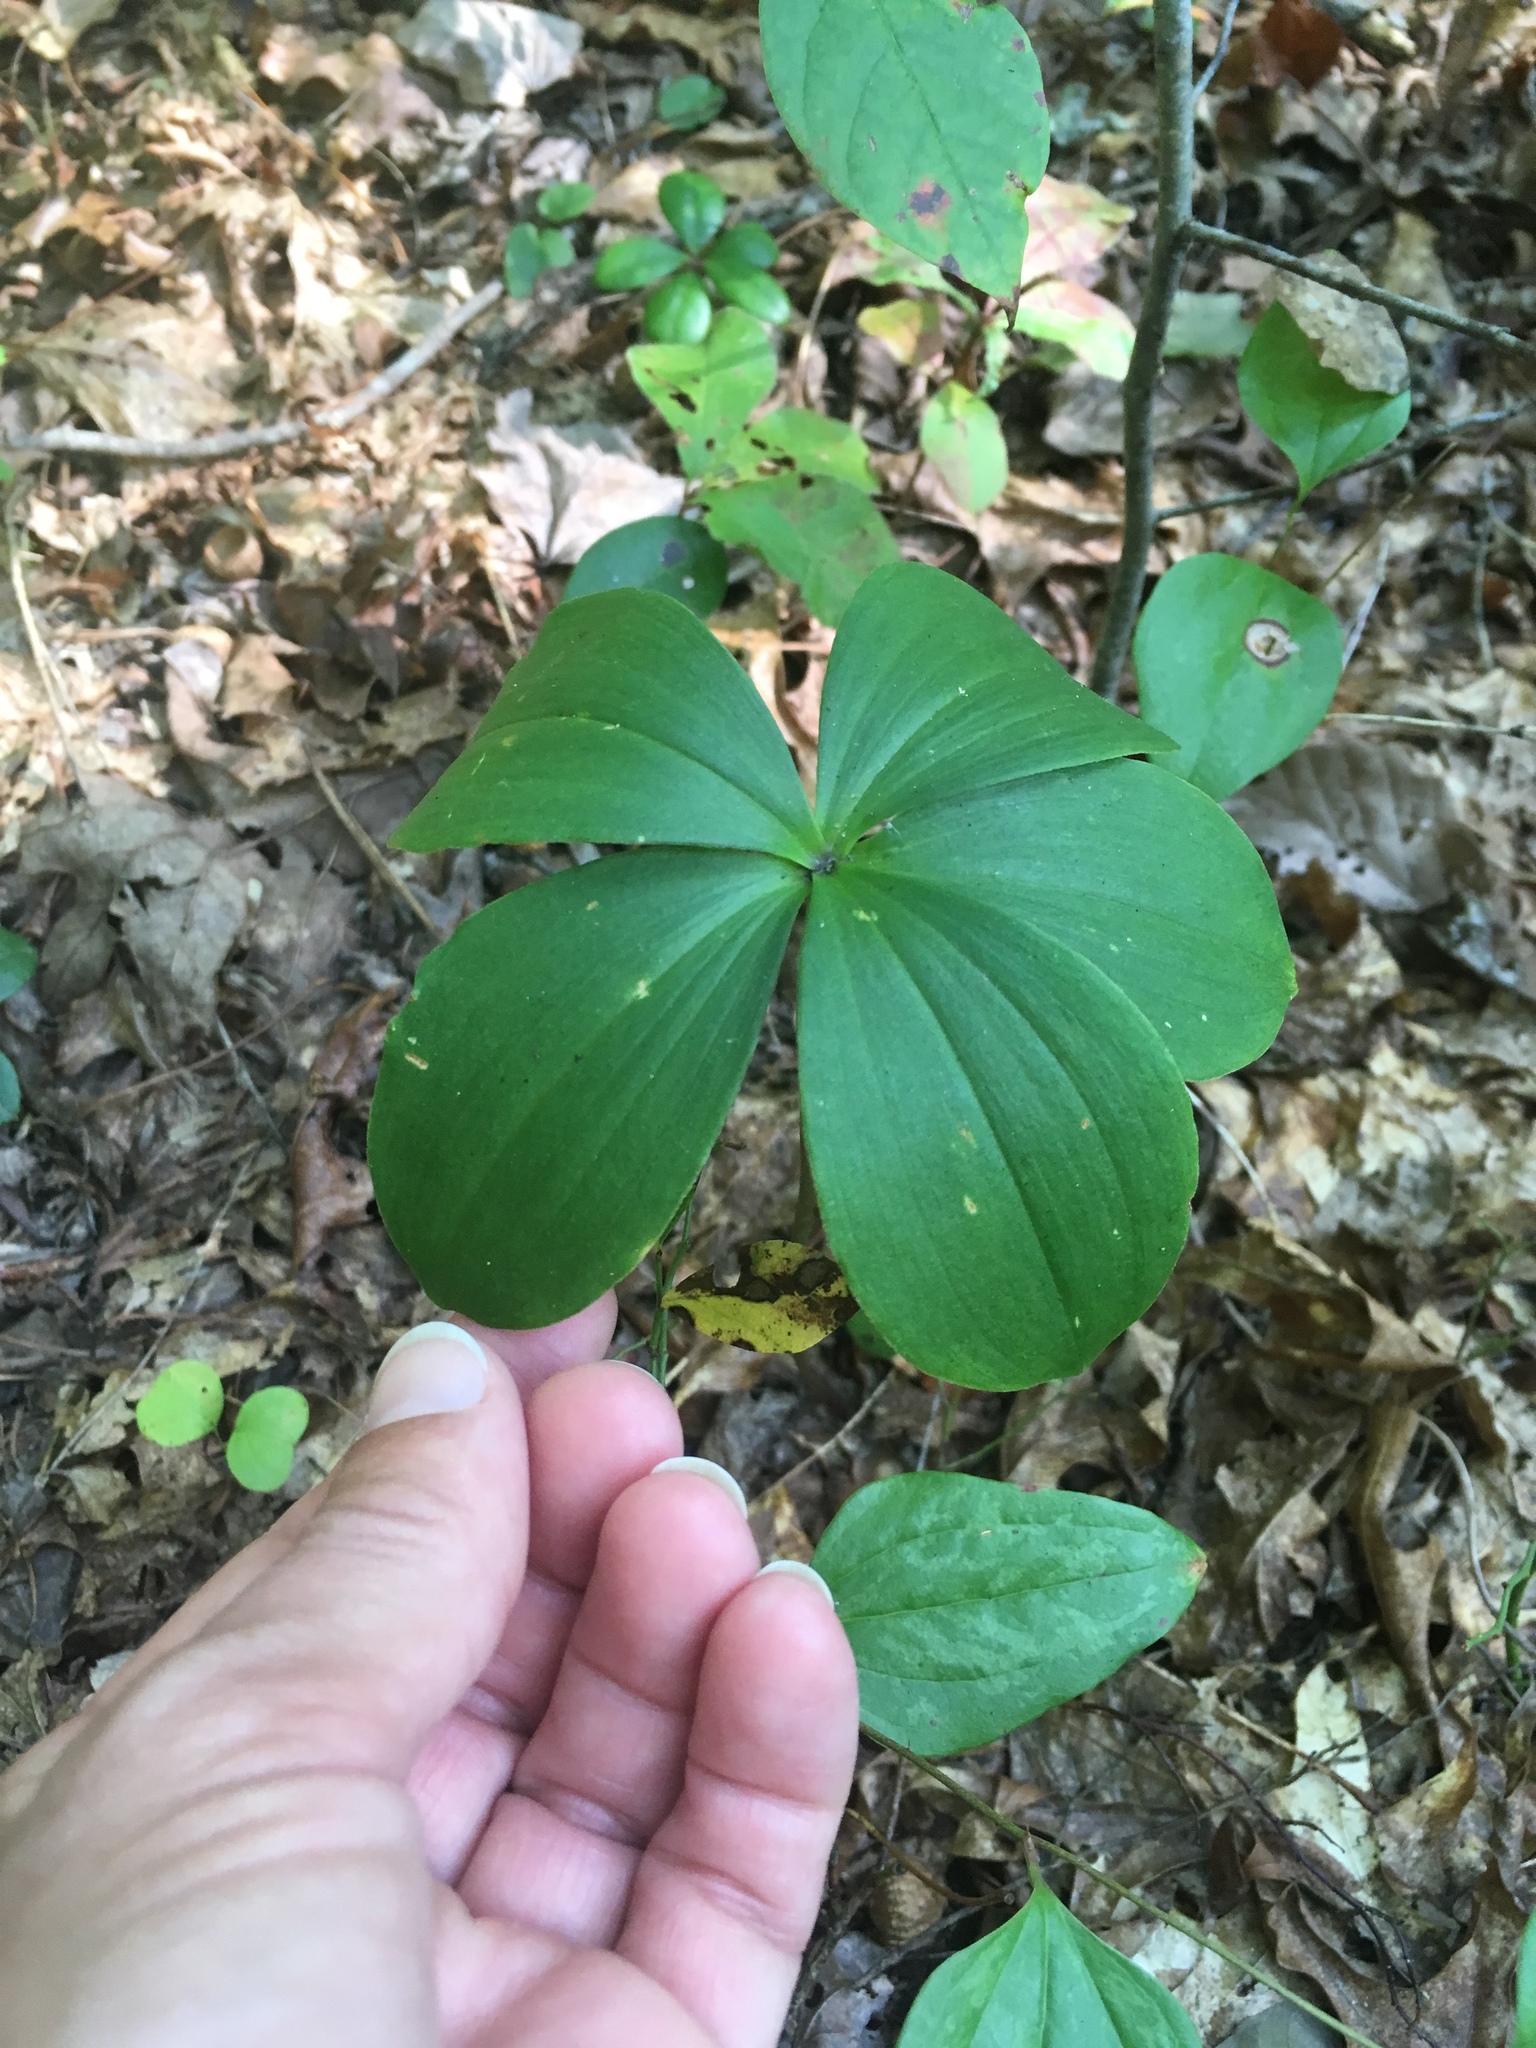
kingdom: Plantae
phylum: Tracheophyta
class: Liliopsida
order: Asparagales
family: Orchidaceae
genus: Isotria
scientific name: Isotria verticillata
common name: Large whorled pogonia
